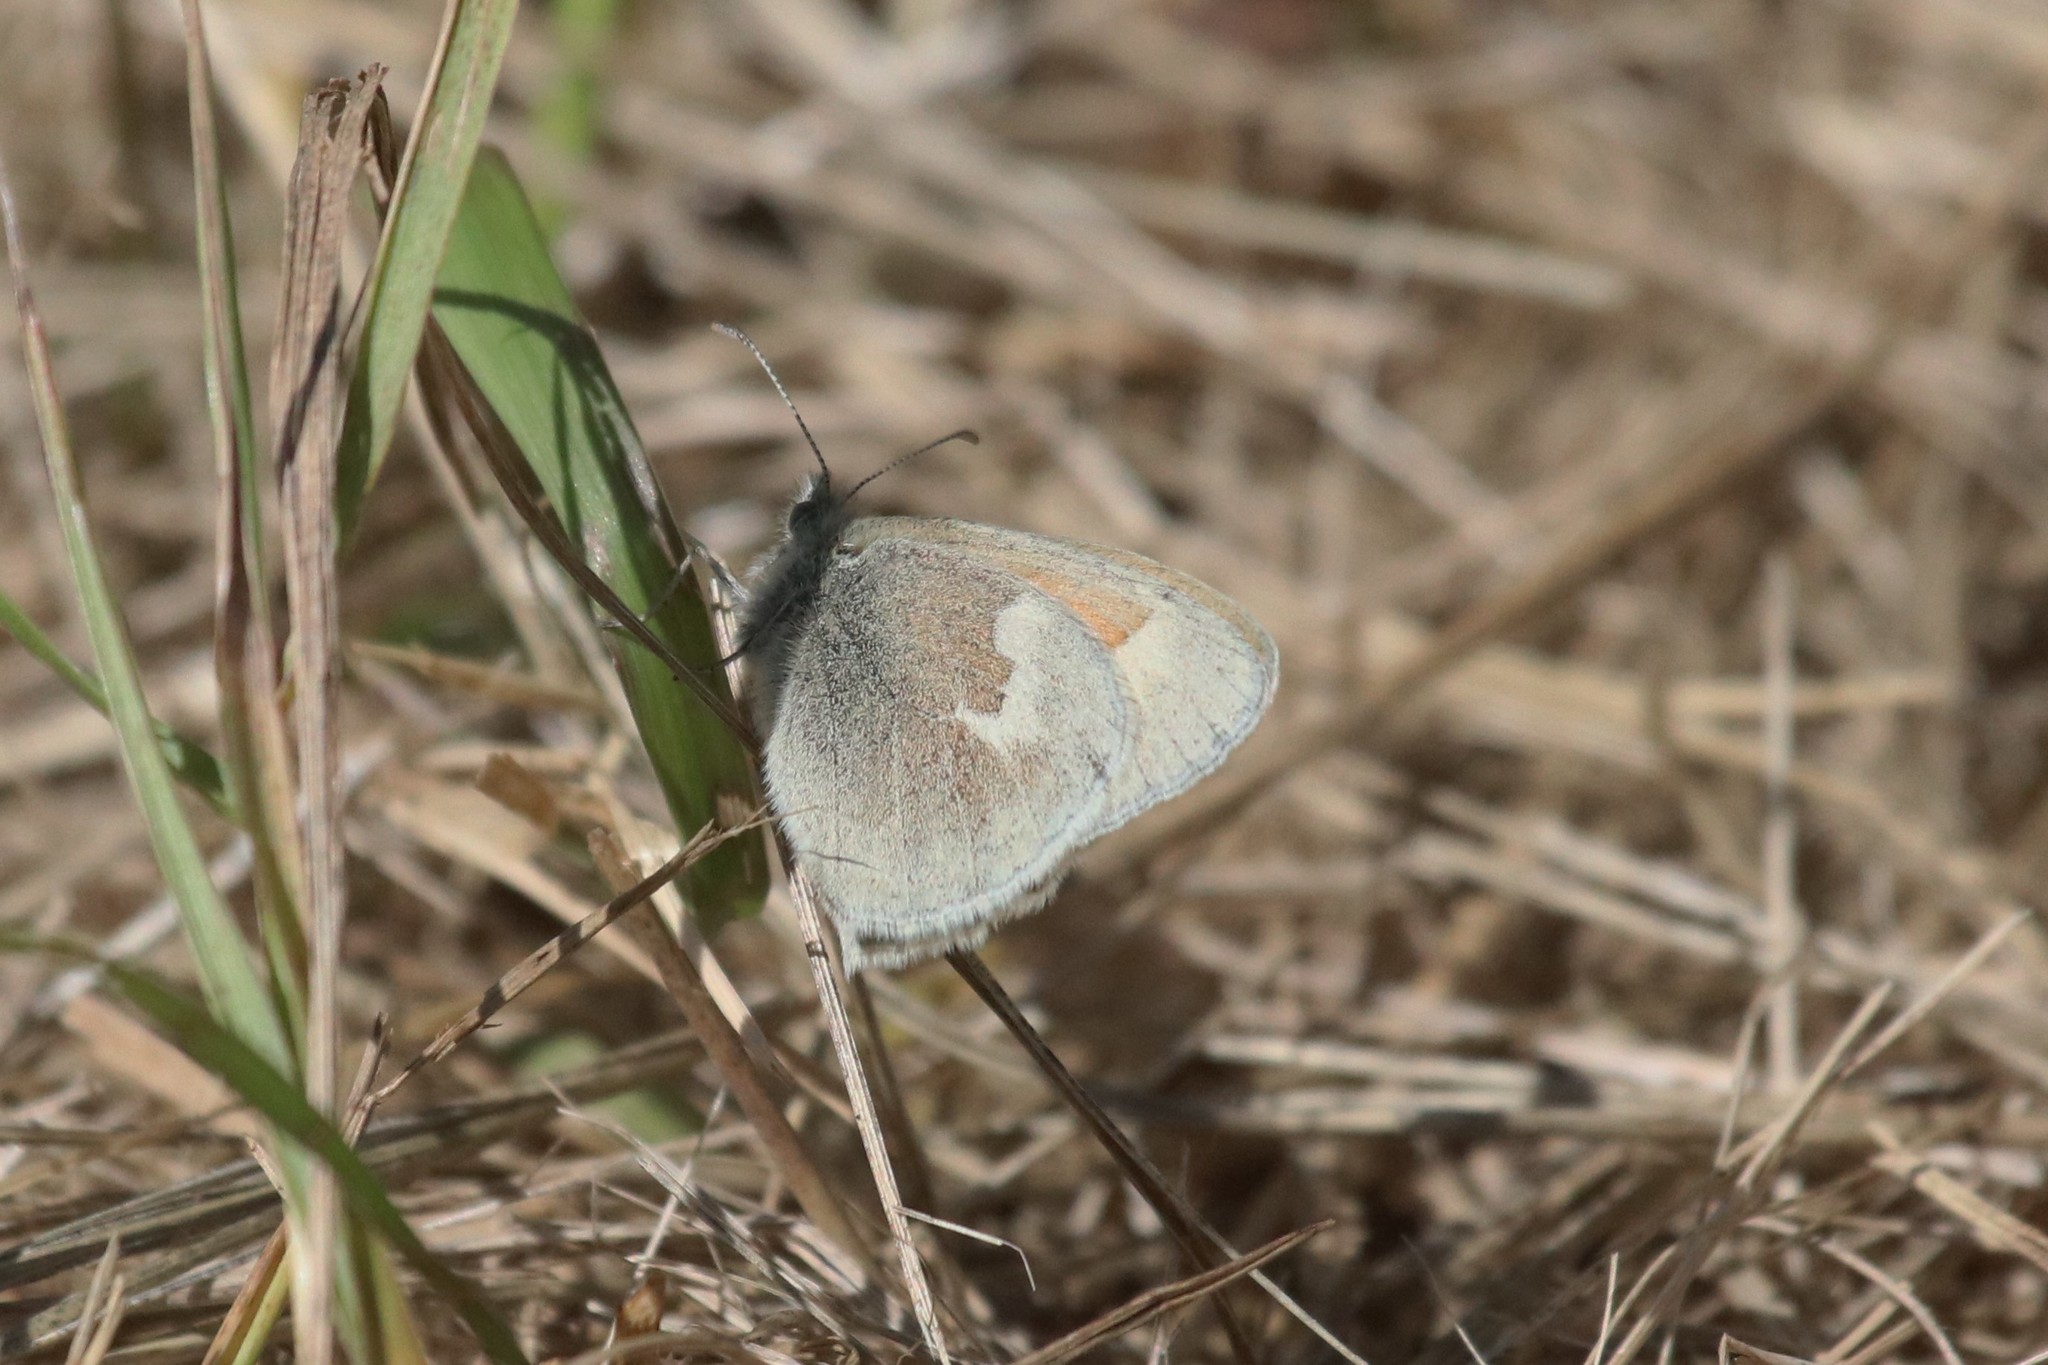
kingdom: Animalia
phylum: Arthropoda
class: Insecta
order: Lepidoptera
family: Nymphalidae
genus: Coenonympha
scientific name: Coenonympha california
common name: Common ringlet
